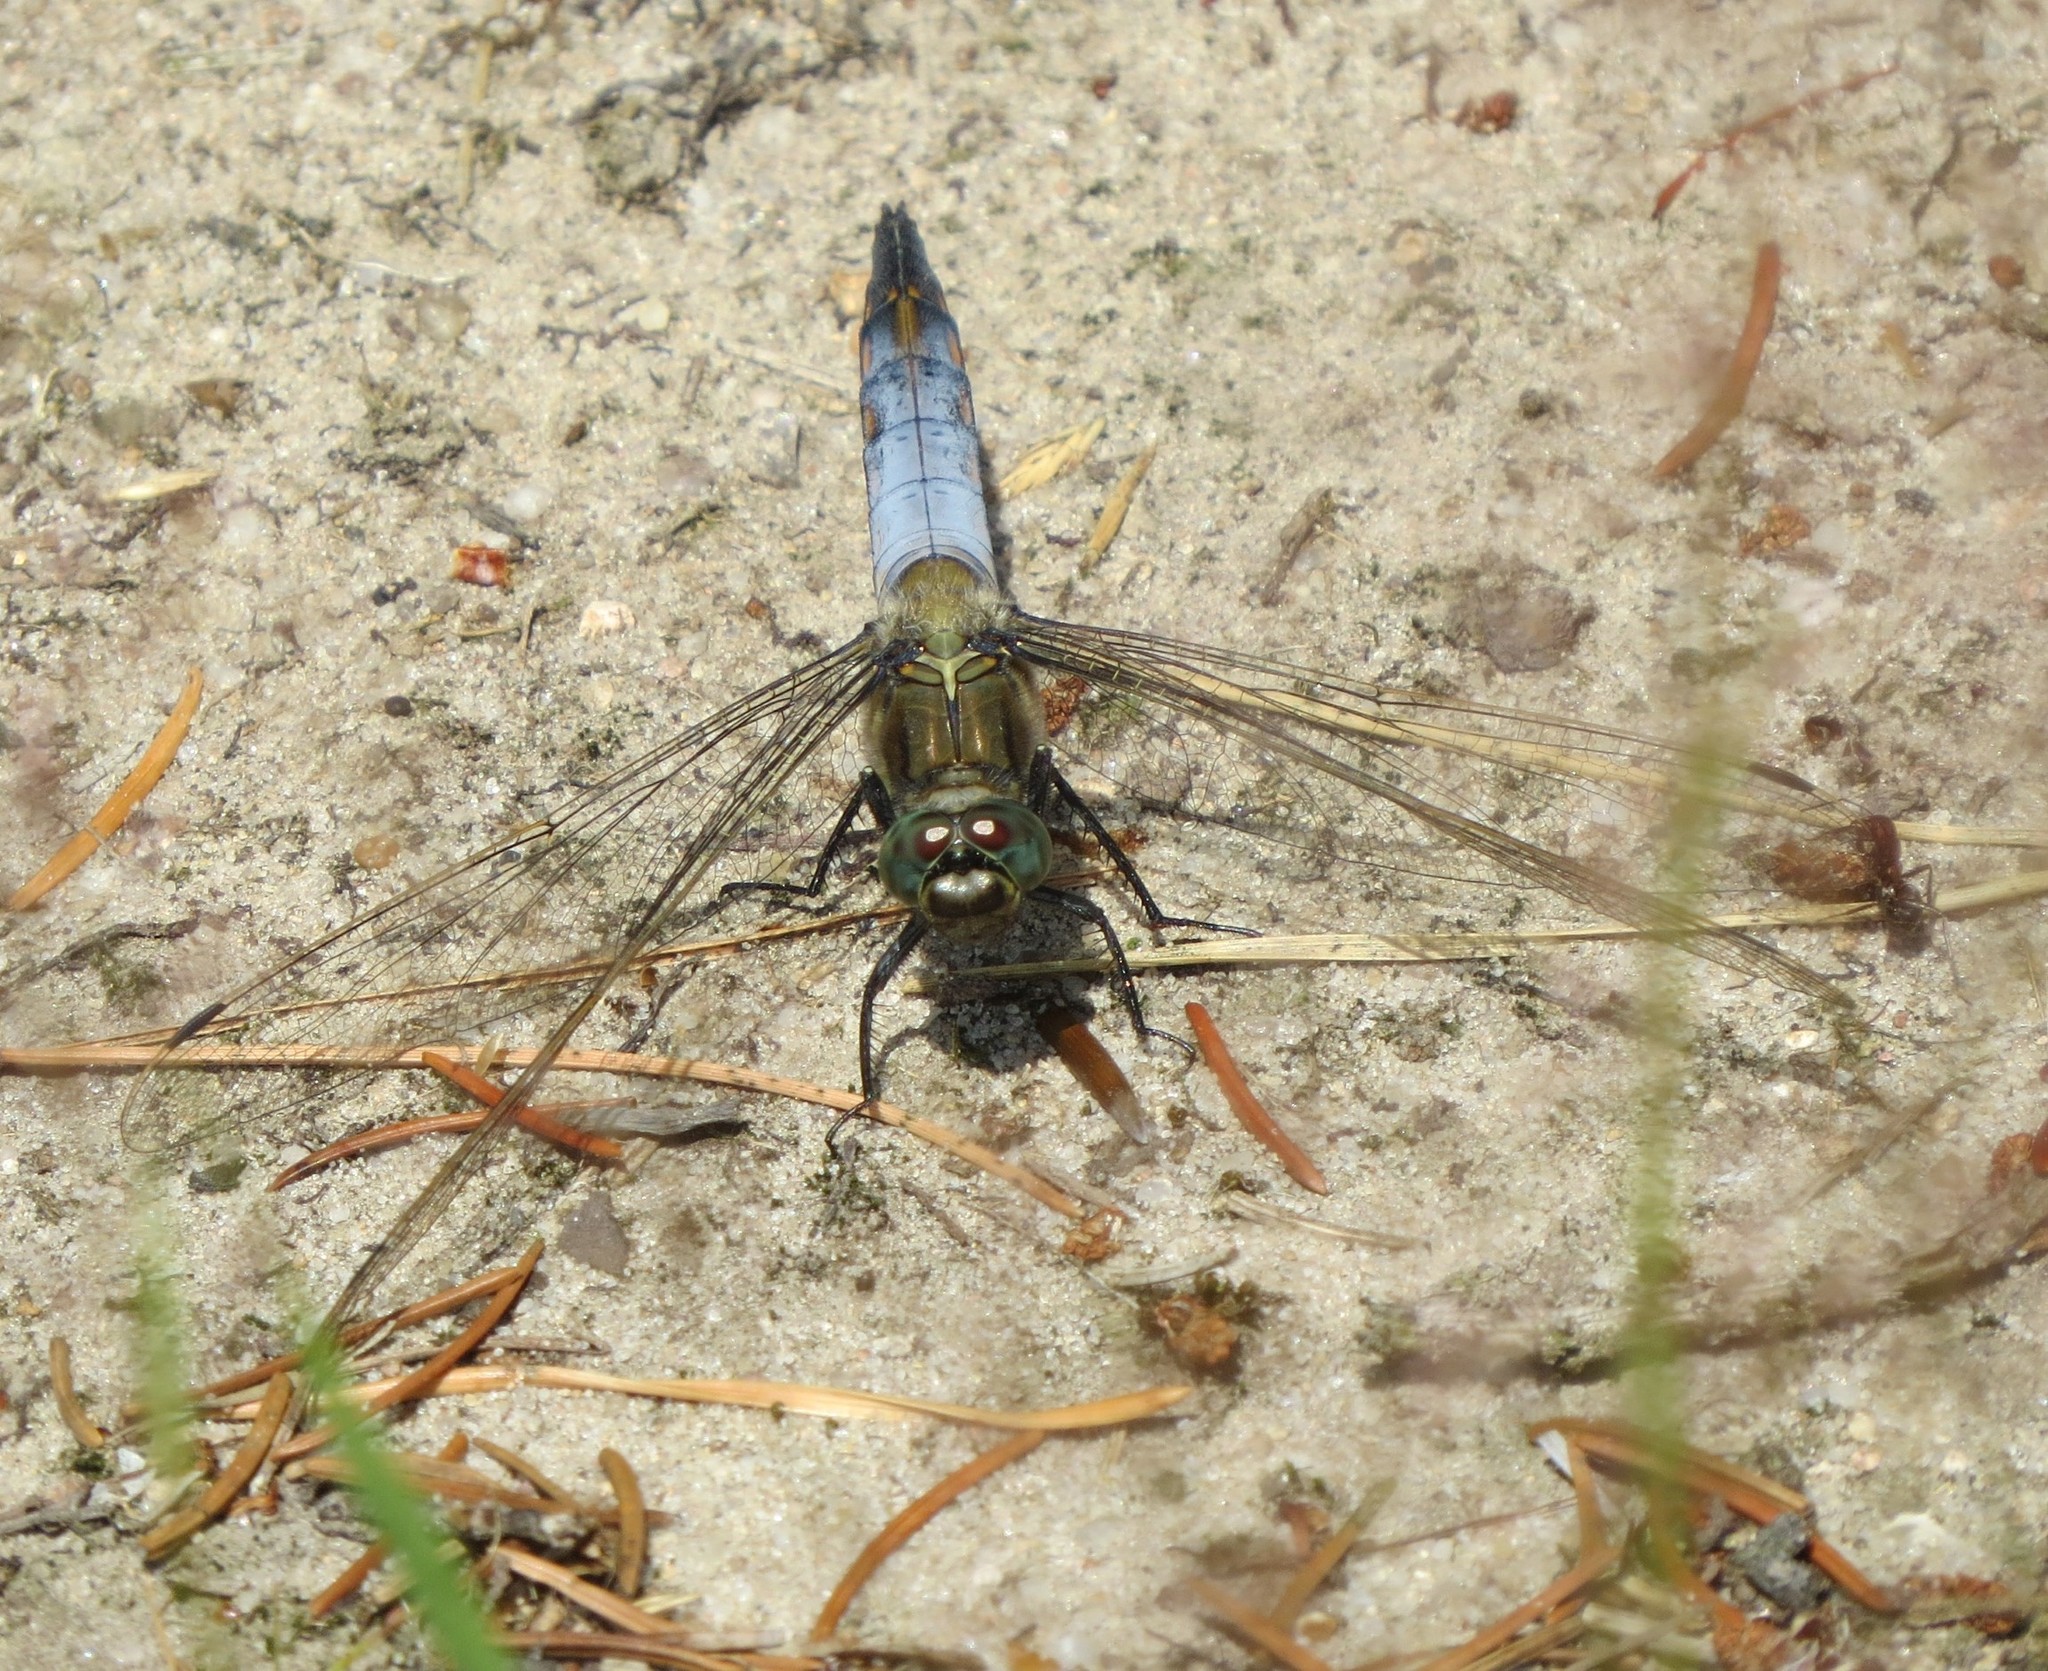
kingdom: Animalia
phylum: Arthropoda
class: Insecta
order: Odonata
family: Libellulidae
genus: Orthetrum
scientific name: Orthetrum cancellatum
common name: Black-tailed skimmer
